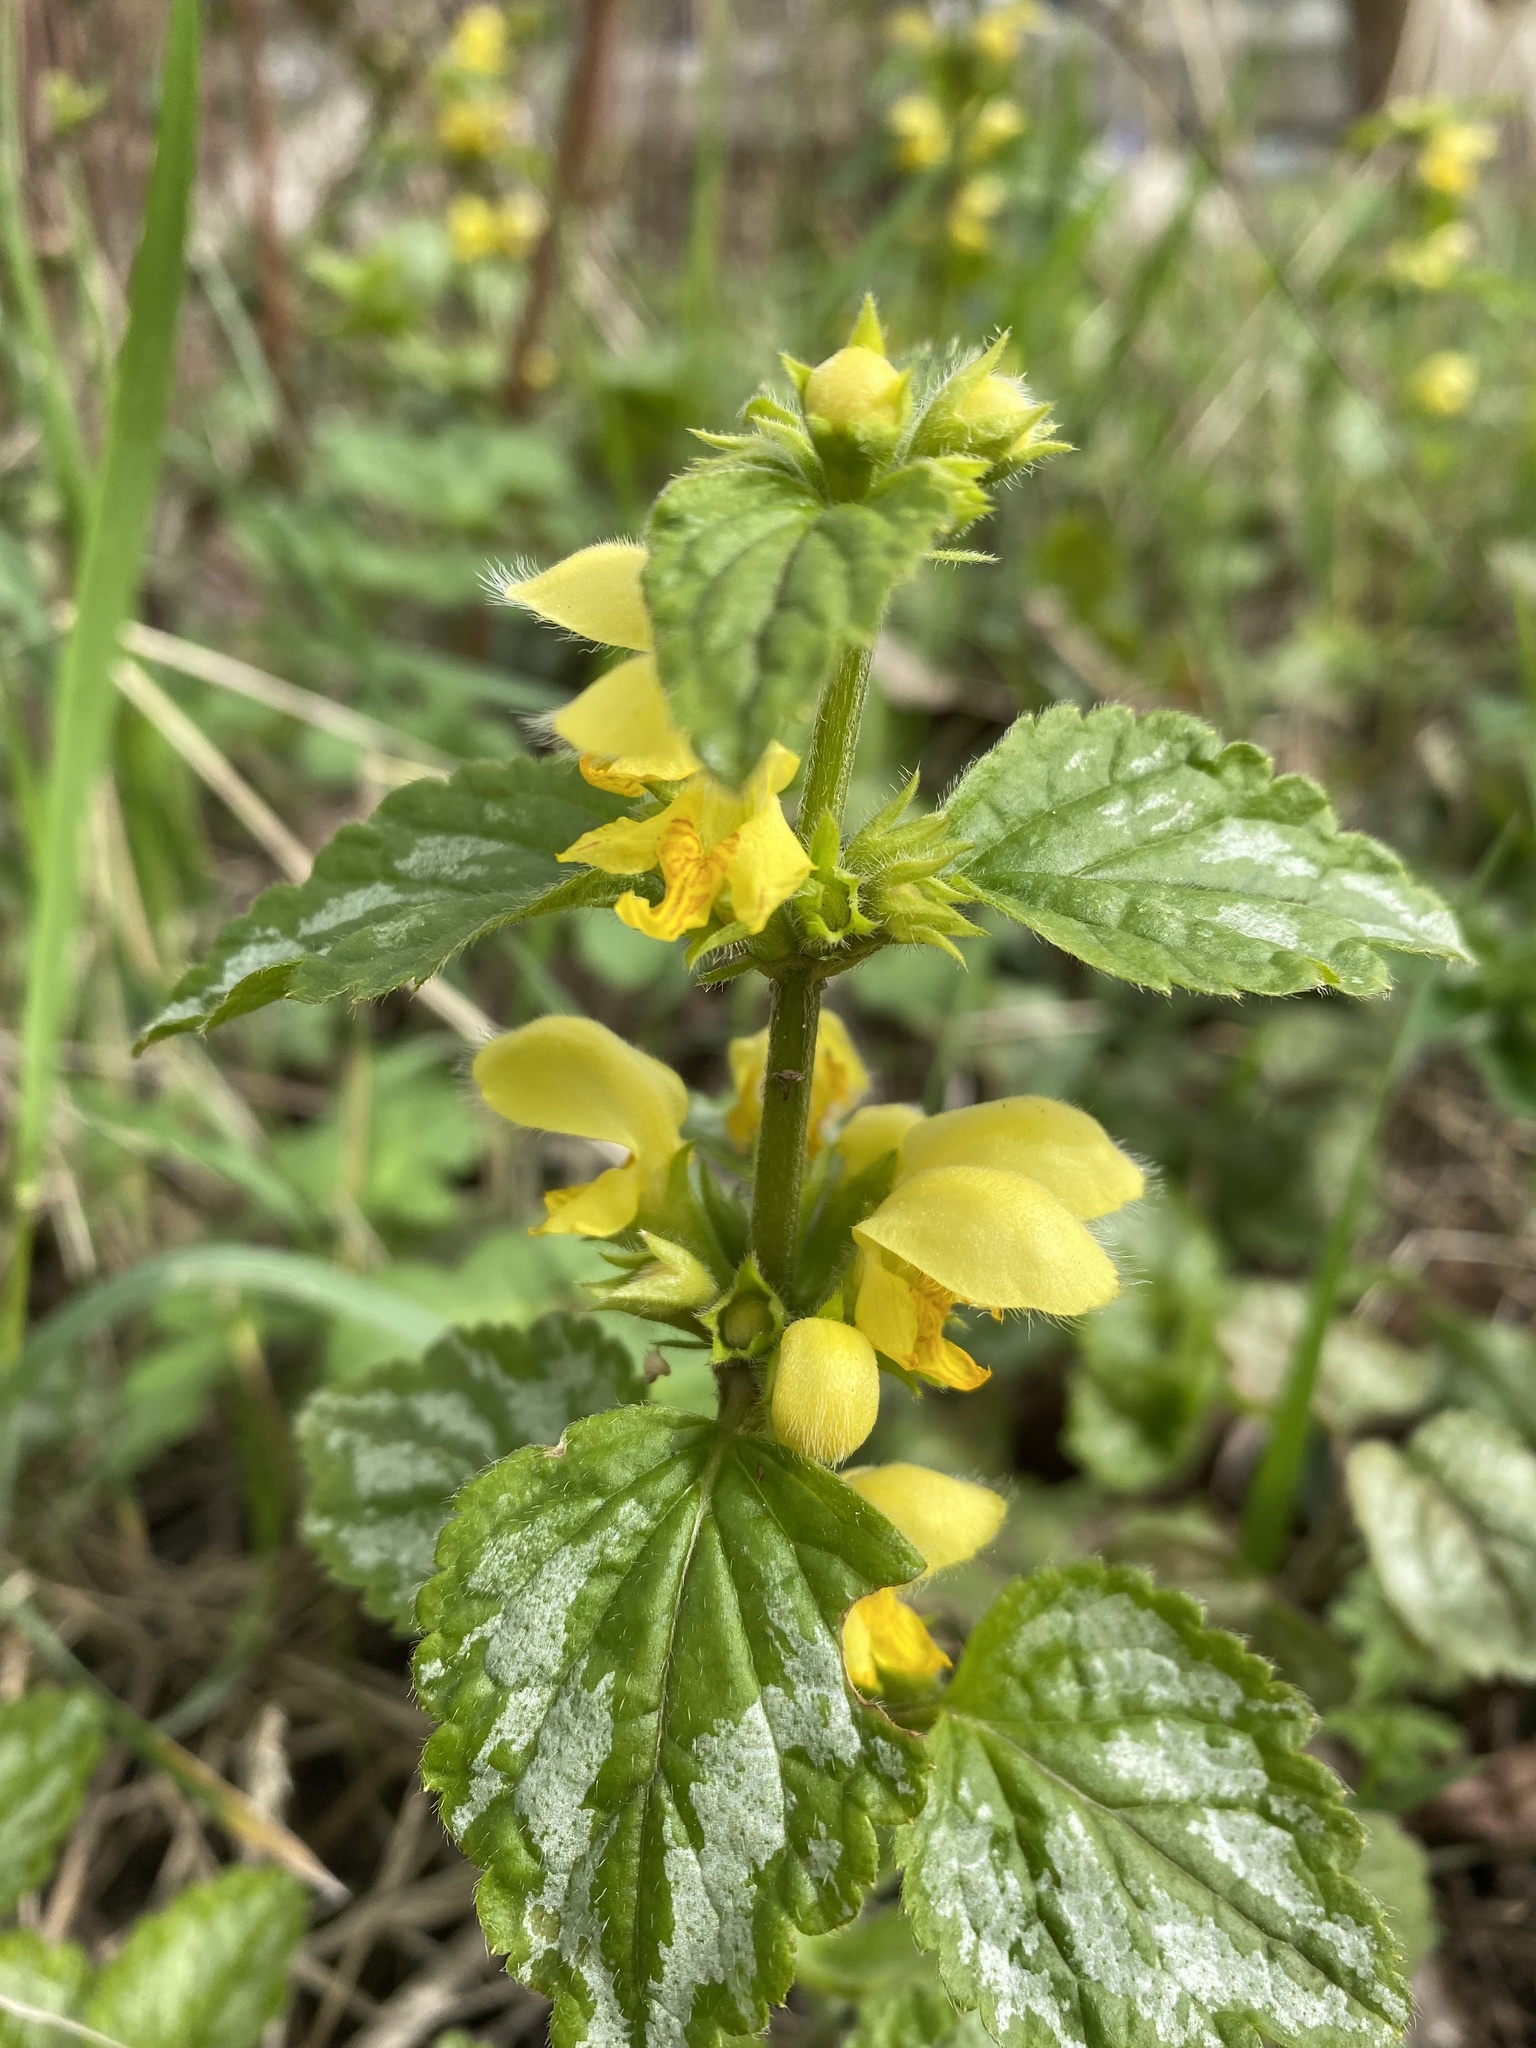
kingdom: Plantae
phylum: Tracheophyta
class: Magnoliopsida
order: Lamiales
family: Lamiaceae
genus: Lamium
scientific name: Lamium galeobdolon
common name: Yellow archangel
